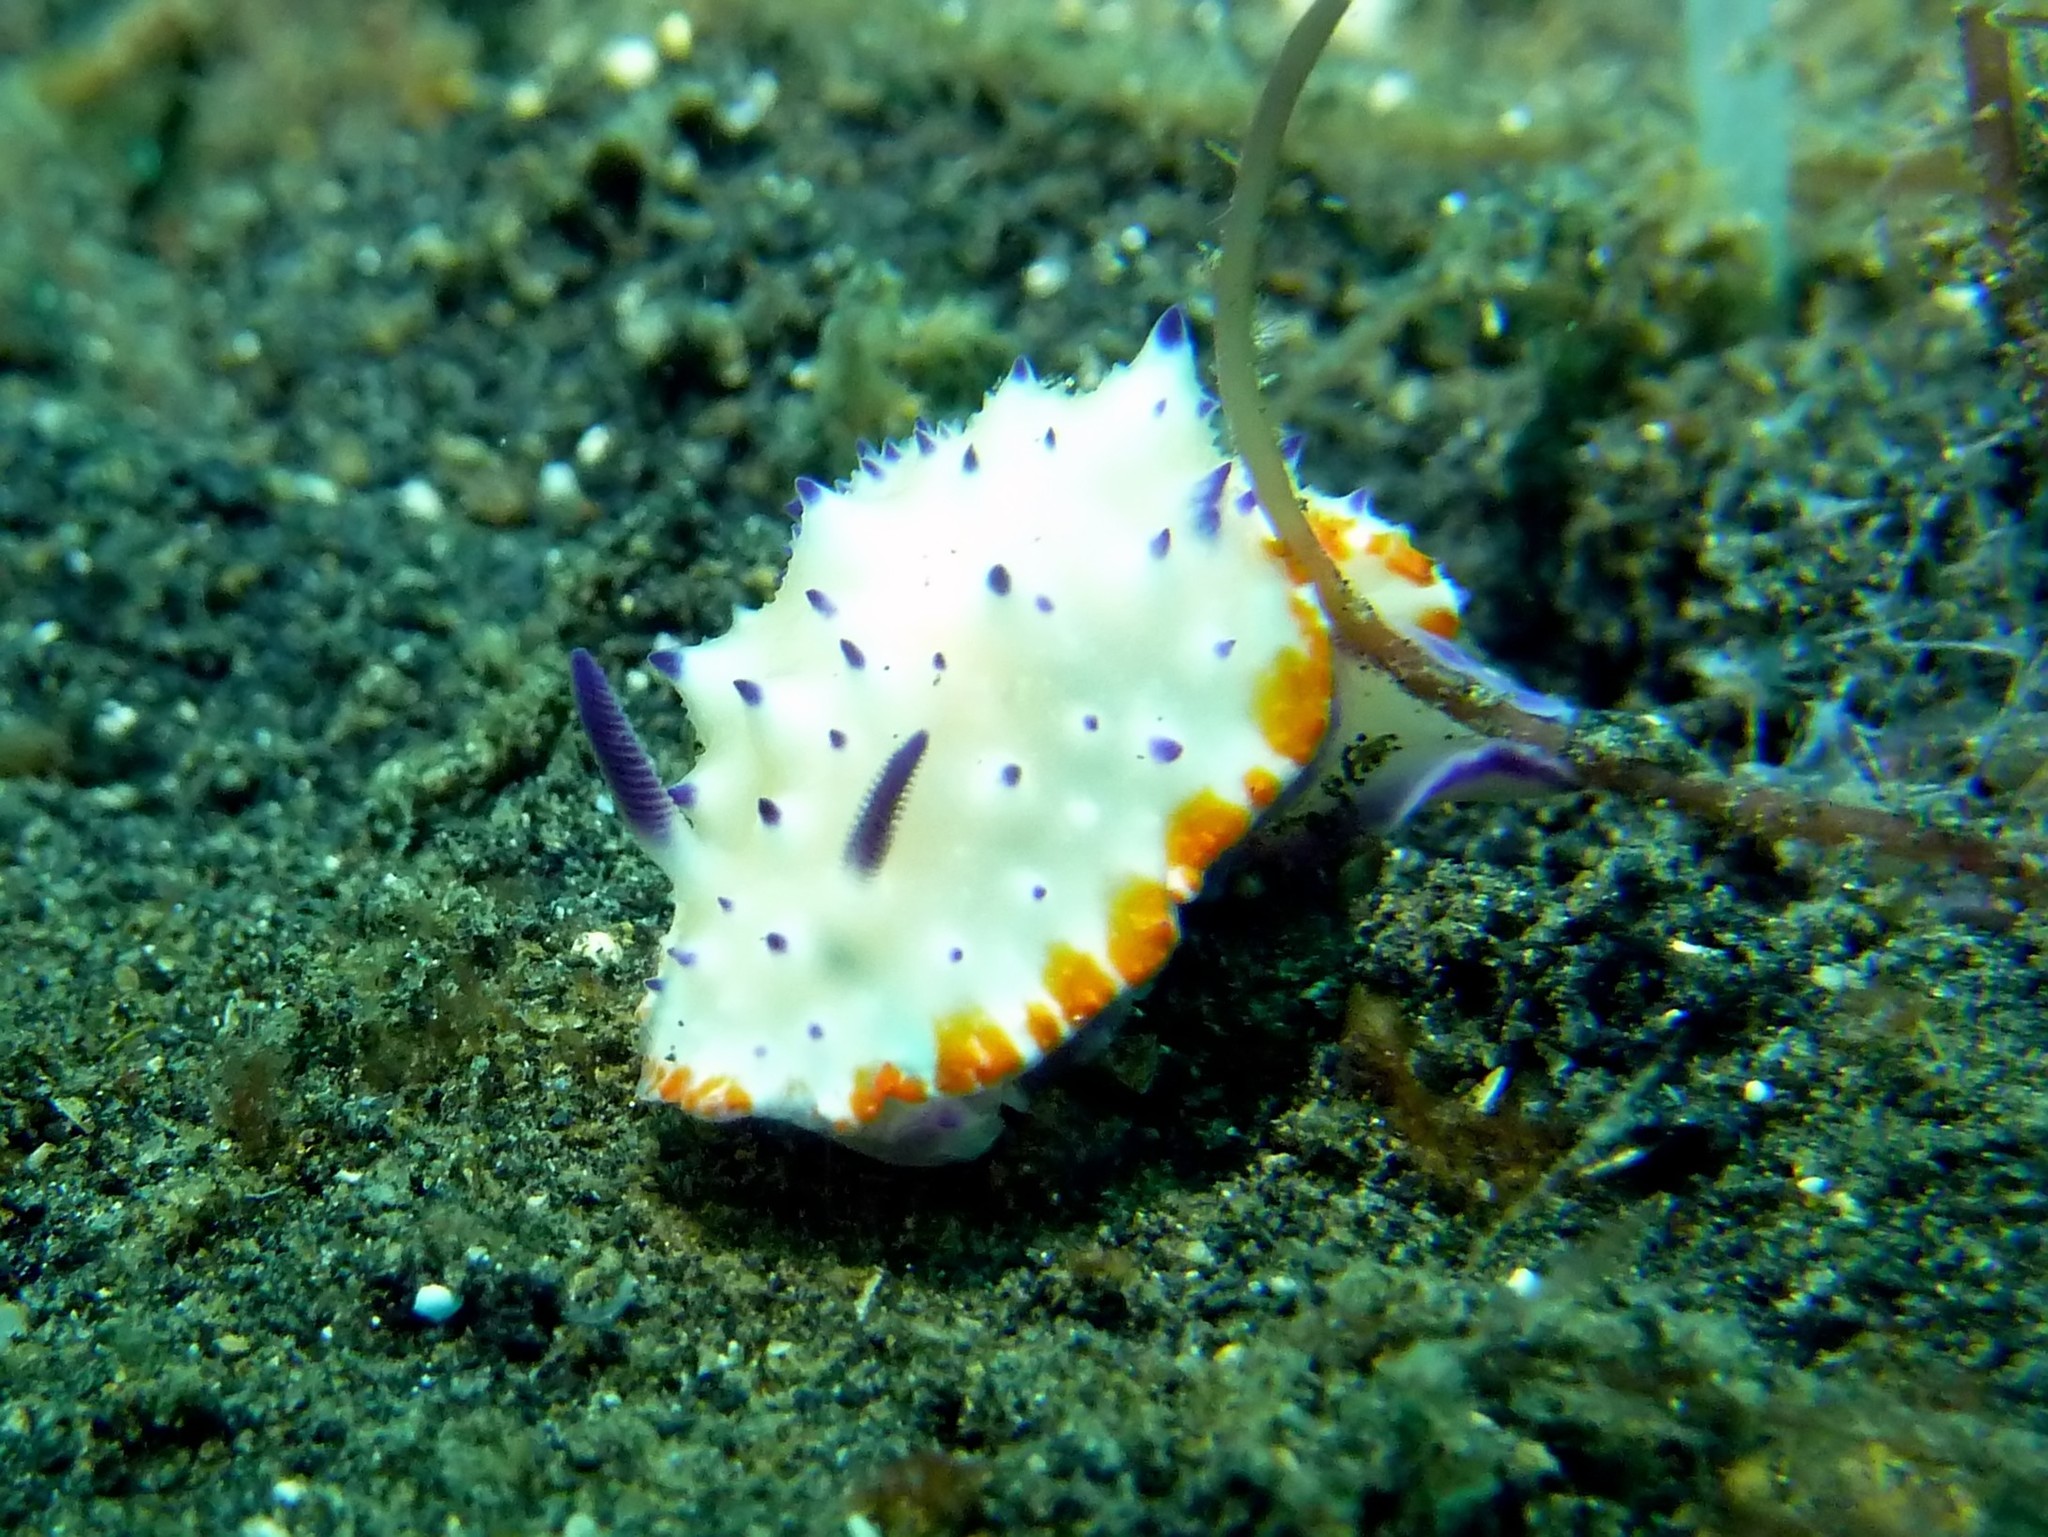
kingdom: Animalia
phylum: Mollusca
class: Gastropoda
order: Nudibranchia
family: Chromodorididae
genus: Mexichromis
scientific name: Mexichromis multituberculata
